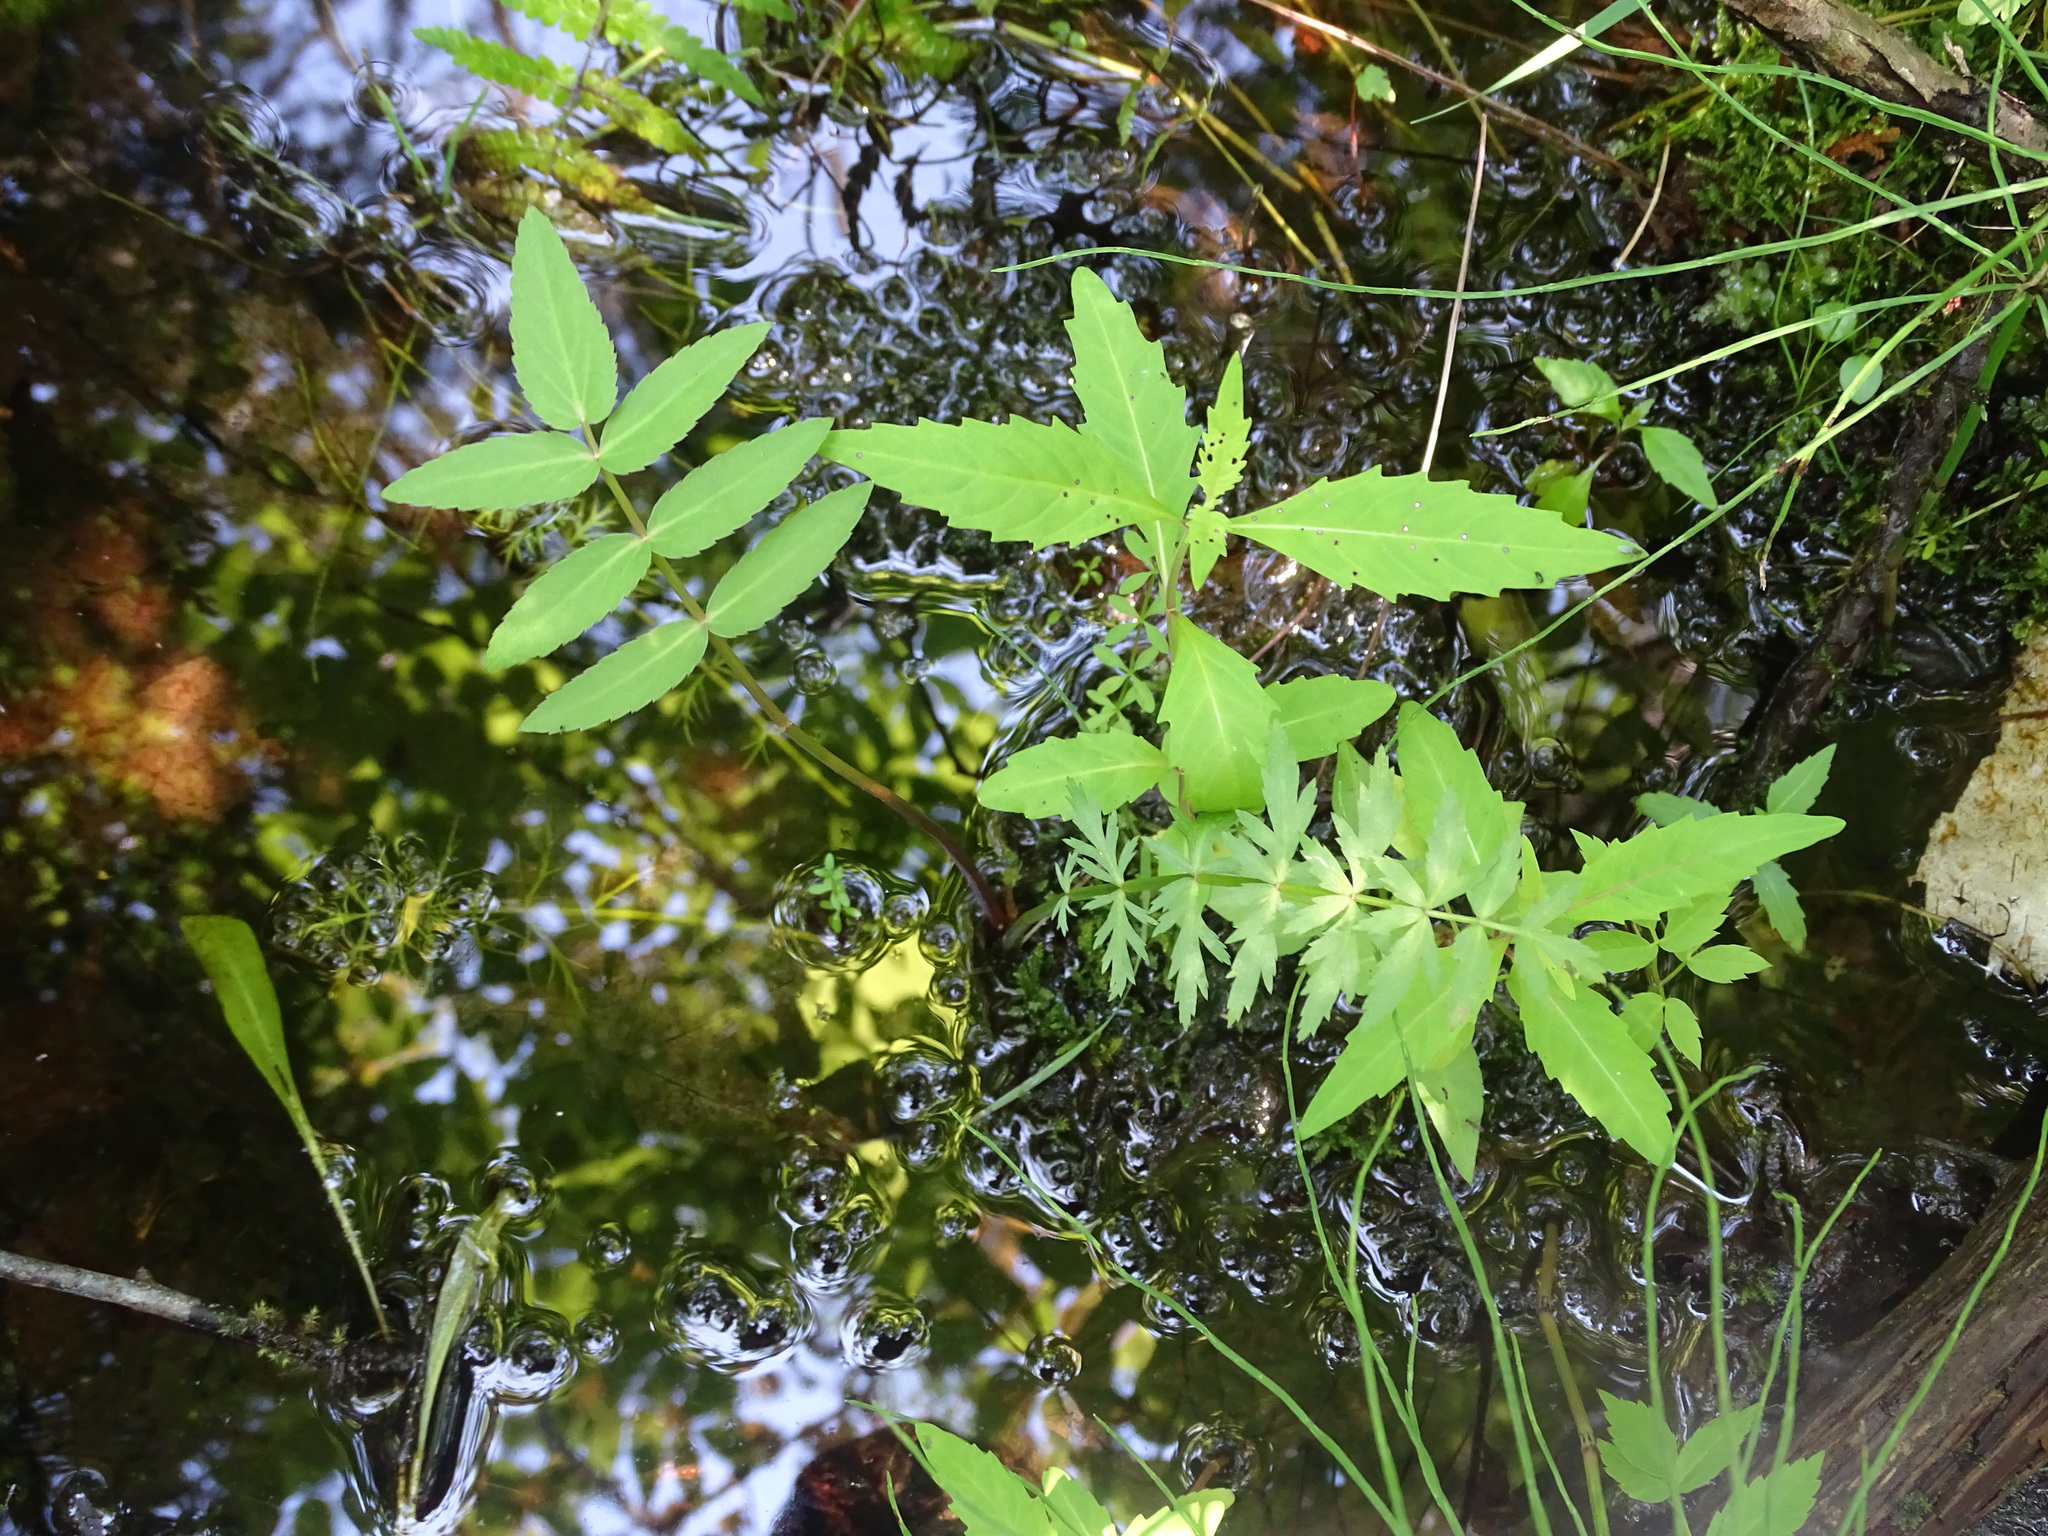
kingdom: Plantae
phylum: Tracheophyta
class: Magnoliopsida
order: Apiales
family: Apiaceae
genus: Sium
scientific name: Sium suave
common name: Hemlock water-parsnip
